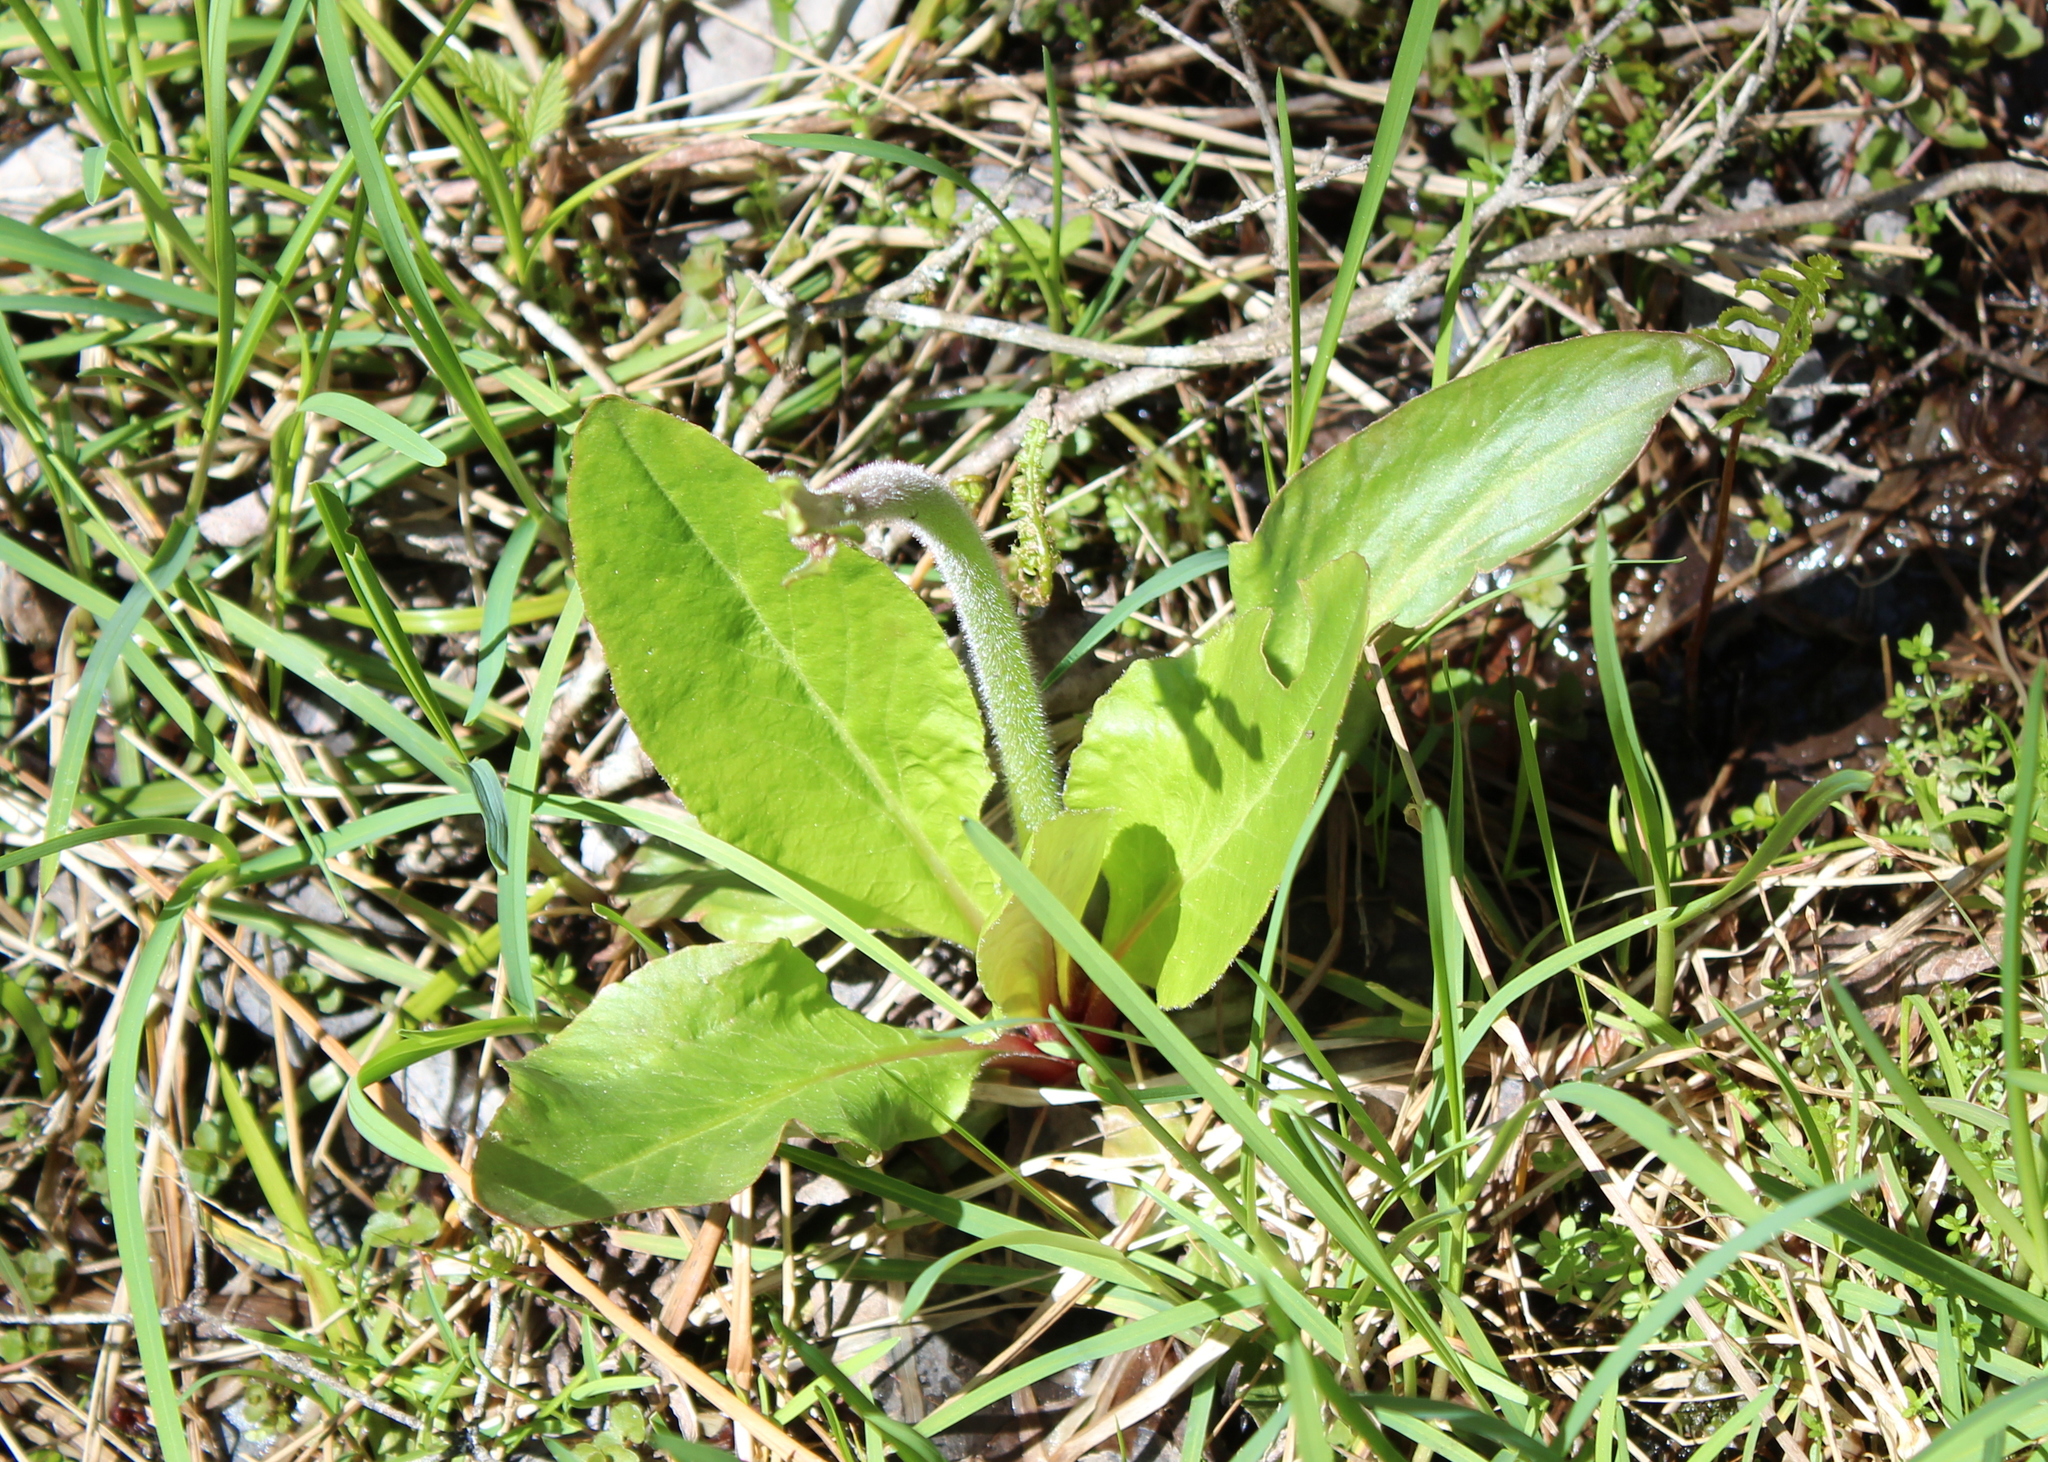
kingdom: Plantae
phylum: Tracheophyta
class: Magnoliopsida
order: Saxifragales
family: Saxifragaceae
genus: Micranthes
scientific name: Micranthes pensylvanica
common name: Marsh saxifrage
